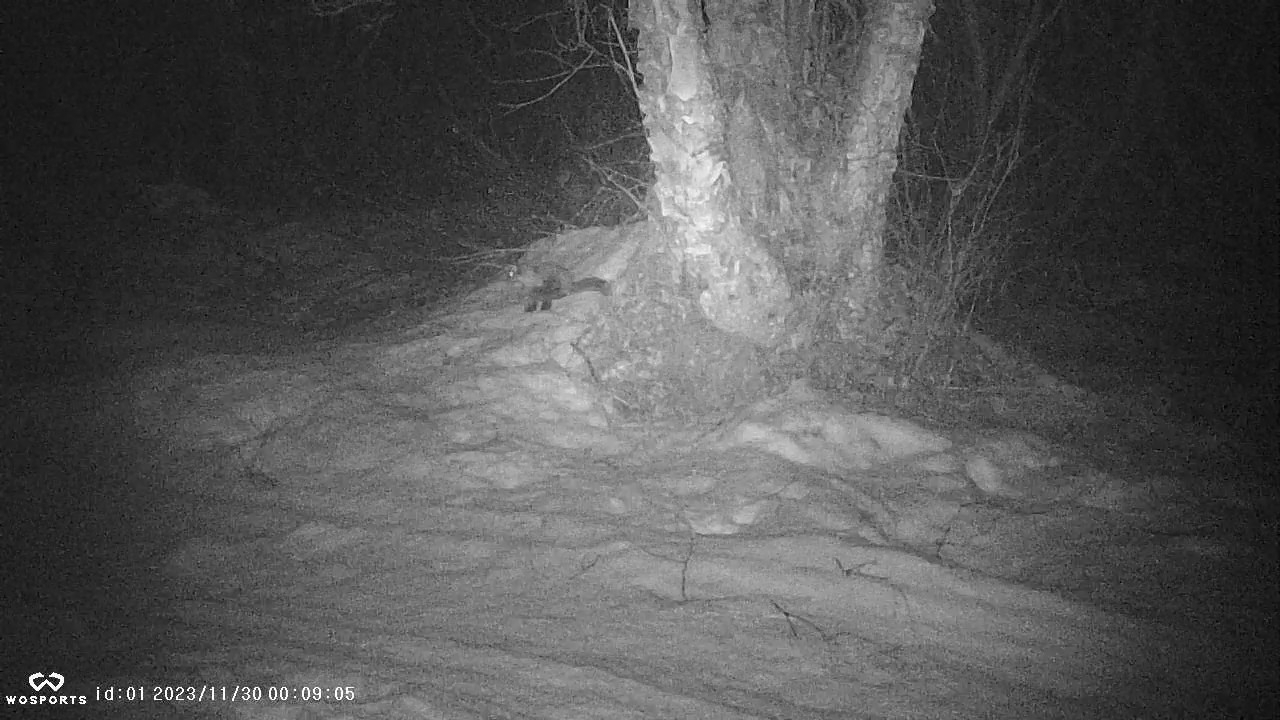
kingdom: Animalia
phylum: Chordata
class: Mammalia
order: Carnivora
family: Mustelidae
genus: Martes
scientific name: Martes americana
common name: American marten
